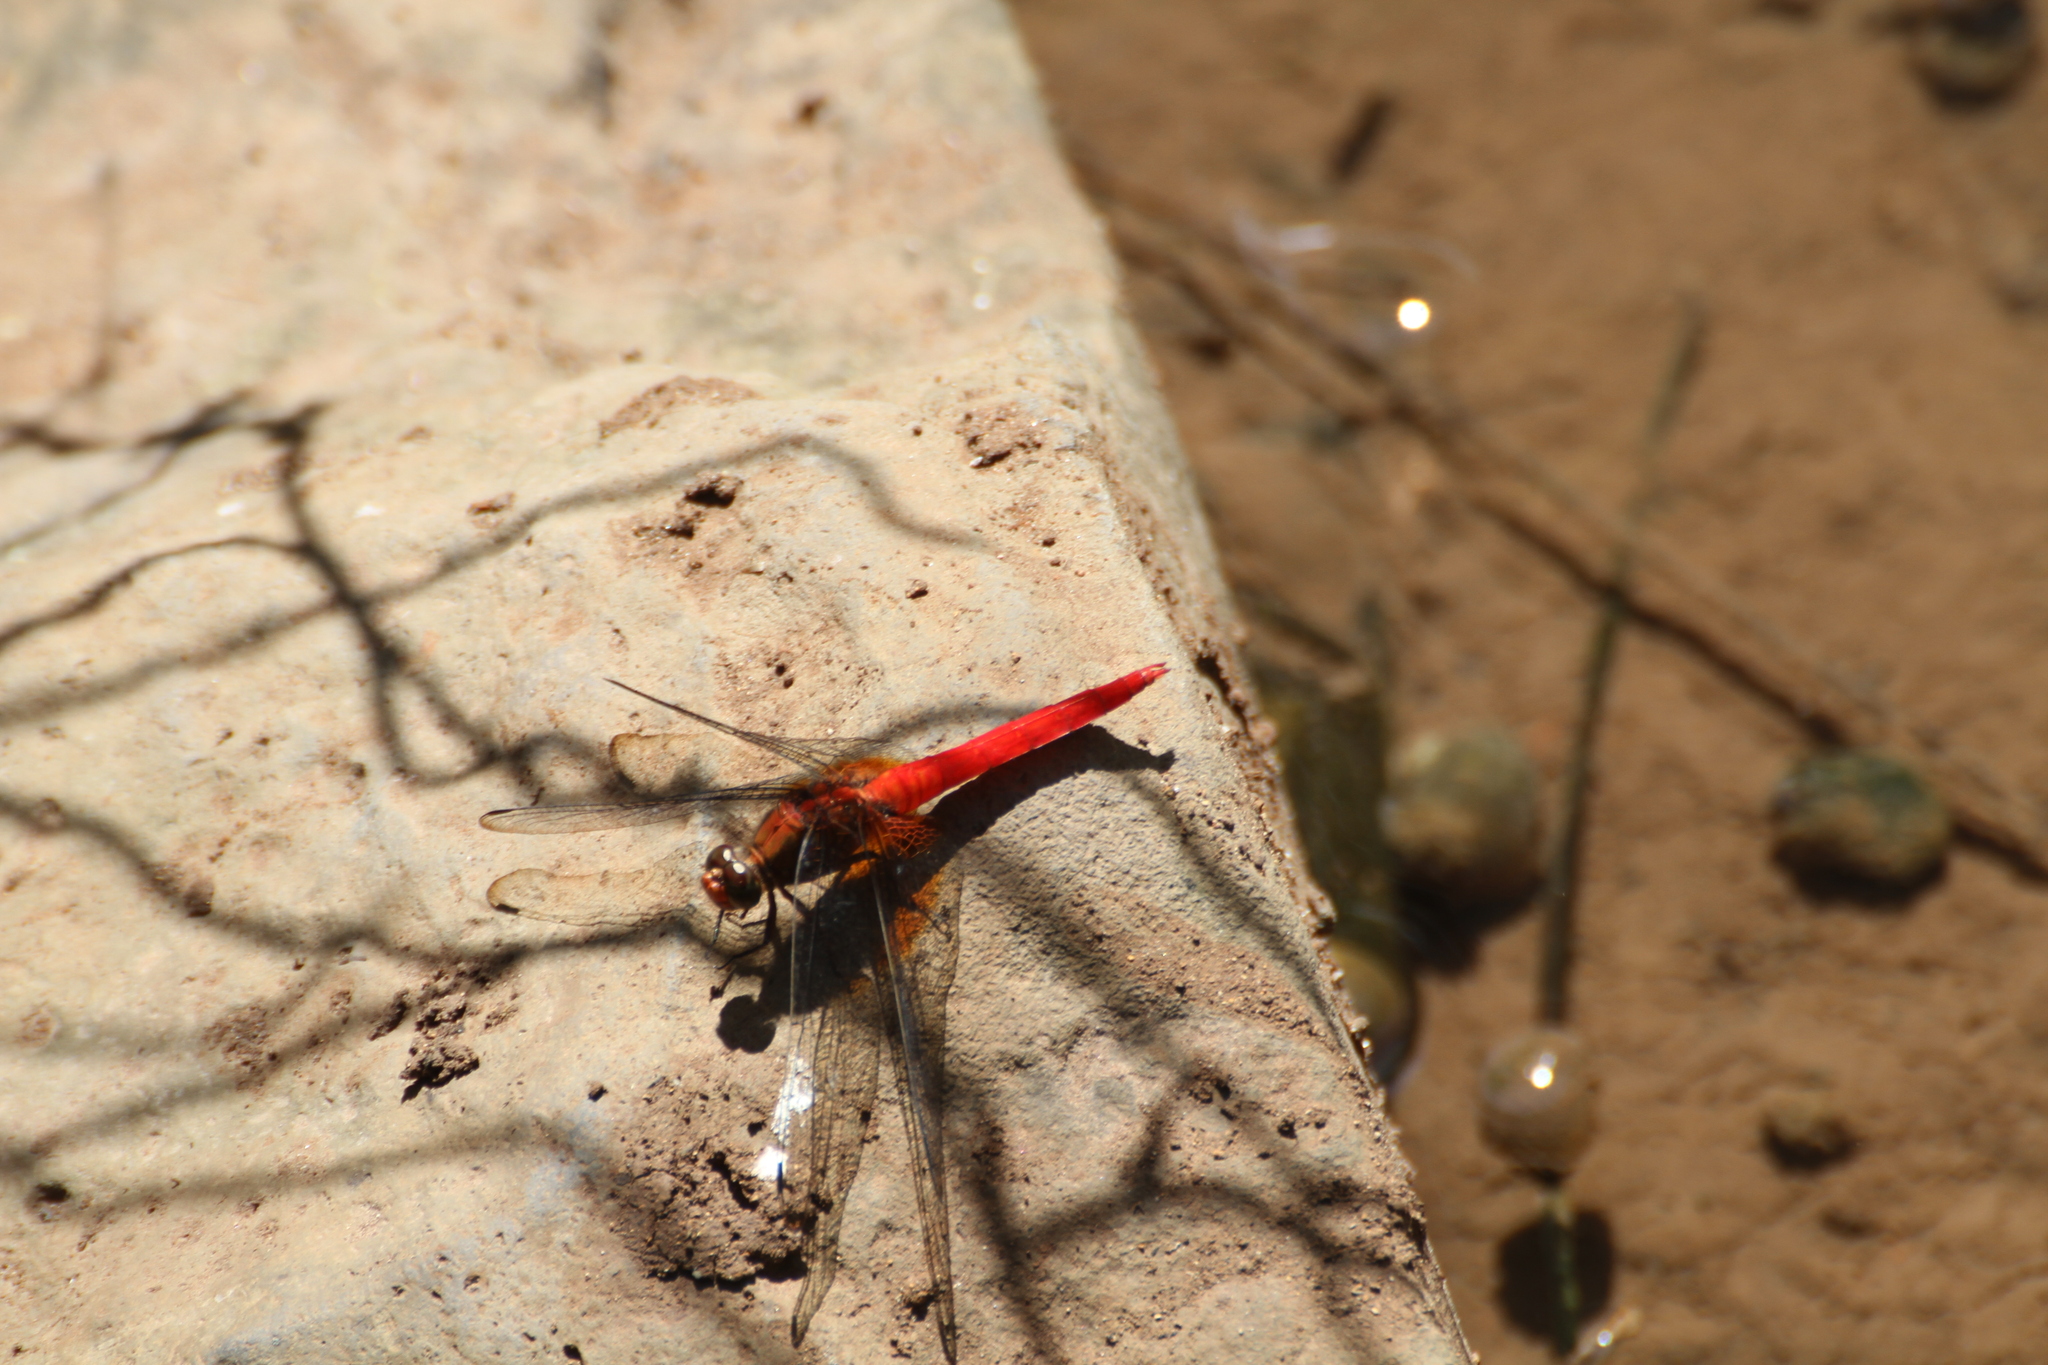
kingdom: Animalia
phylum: Arthropoda
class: Insecta
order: Odonata
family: Libellulidae
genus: Orthetrum
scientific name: Orthetrum testaceum
